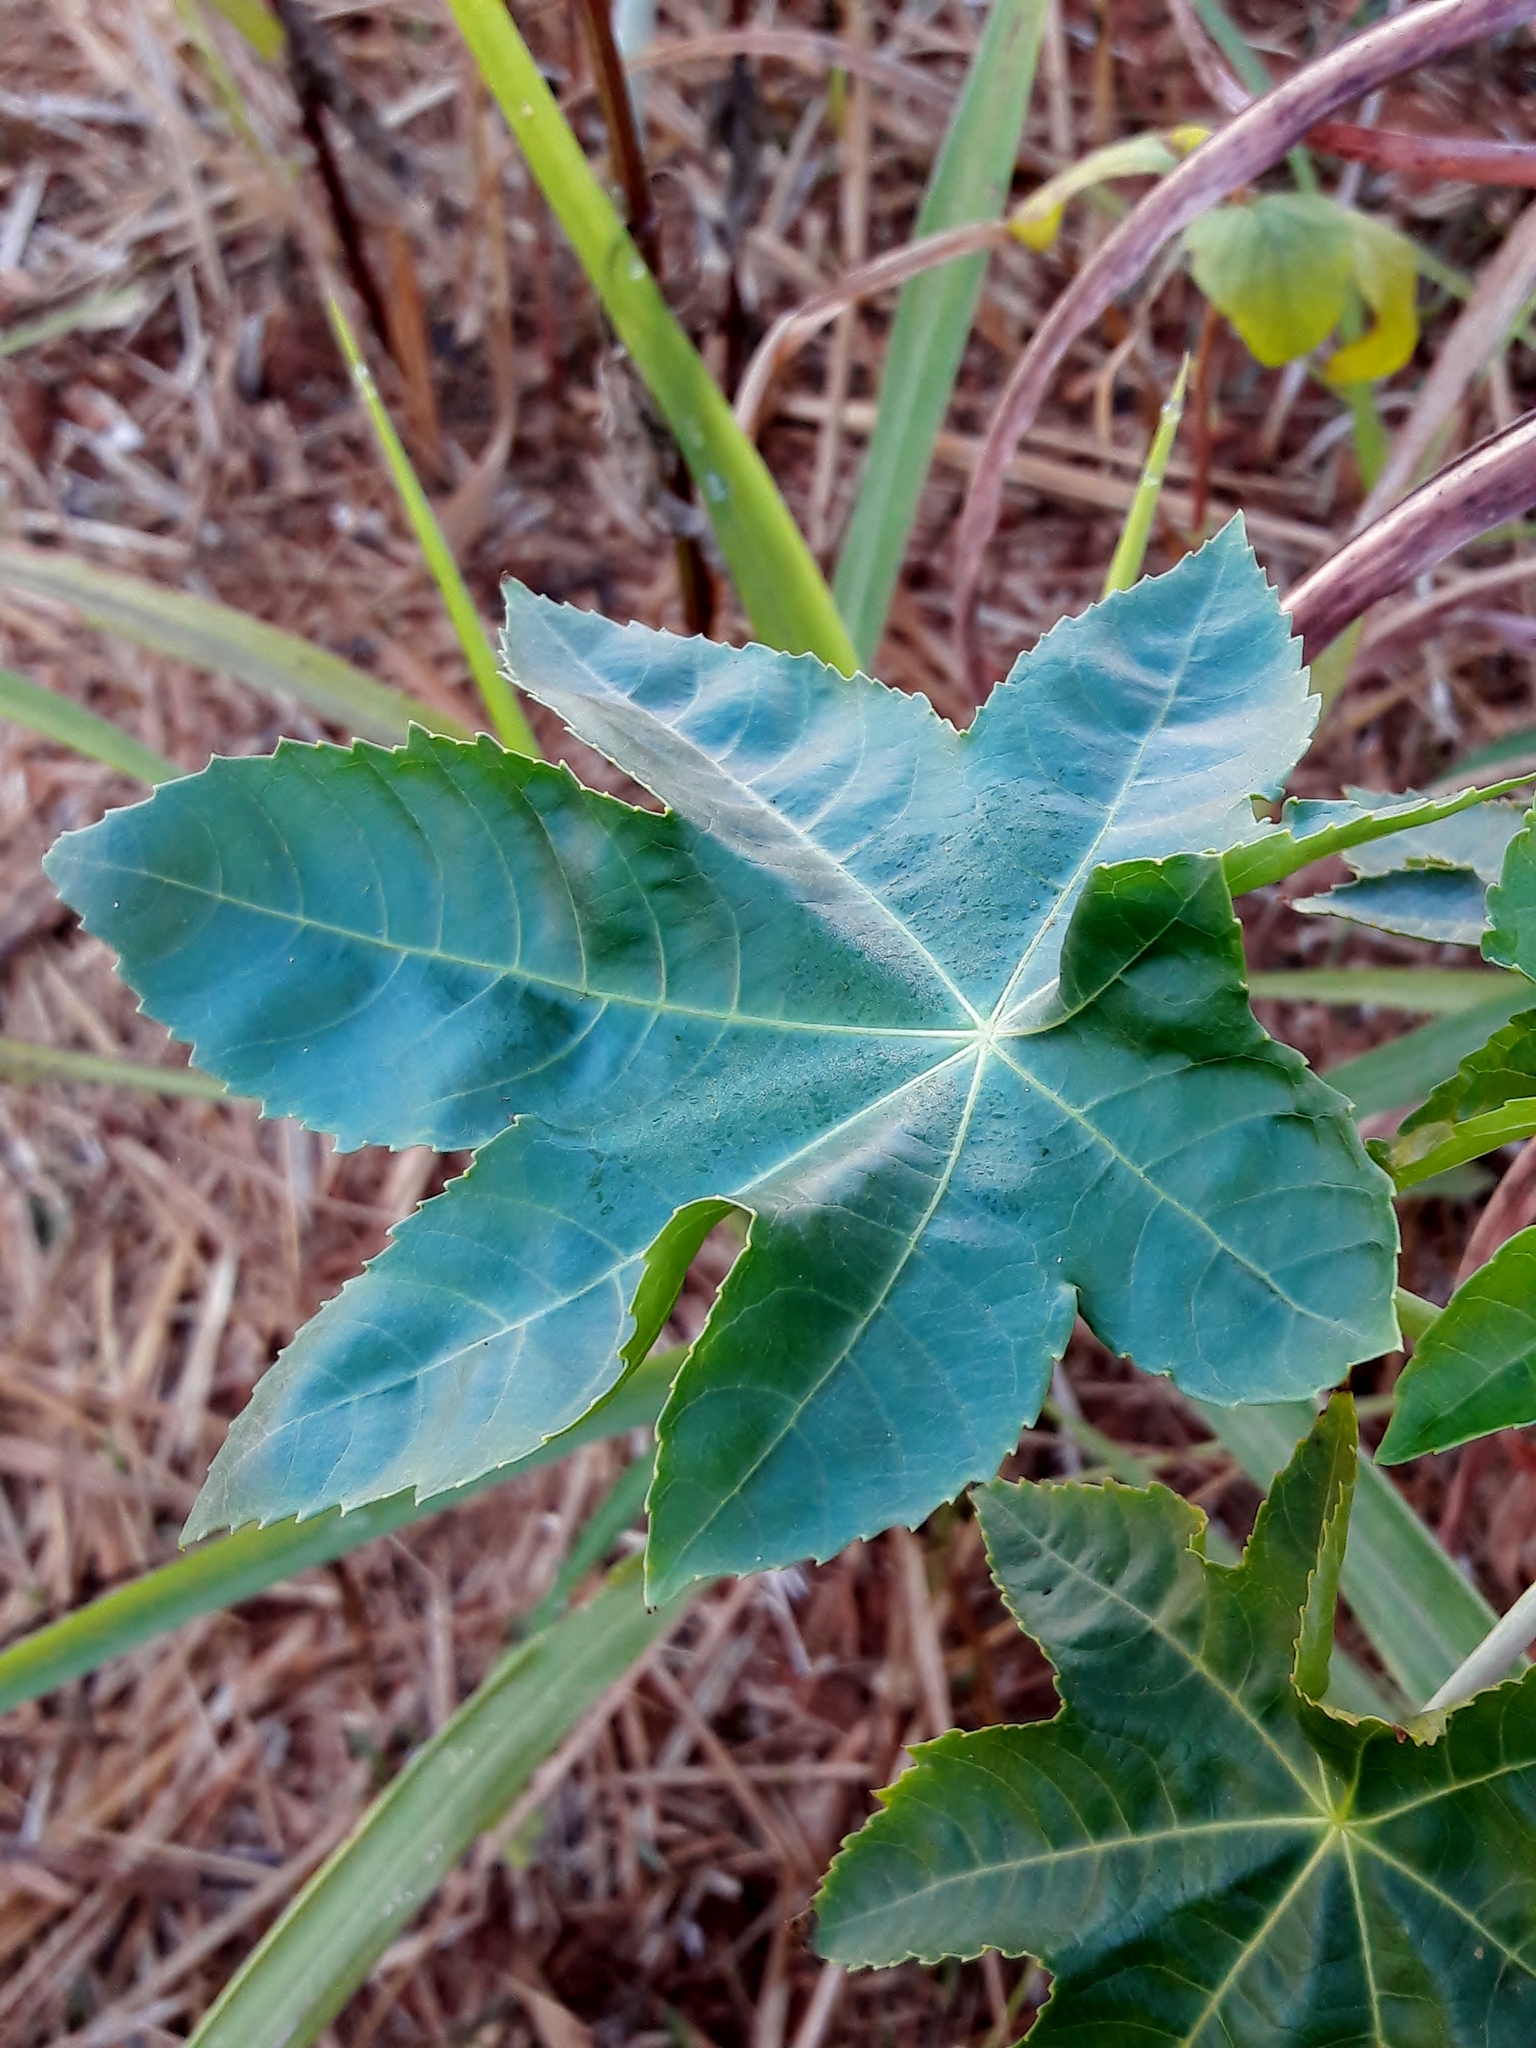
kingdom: Plantae
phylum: Tracheophyta
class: Magnoliopsida
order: Malpighiales
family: Euphorbiaceae
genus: Ricinus
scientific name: Ricinus communis
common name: Castor-oil-plant
